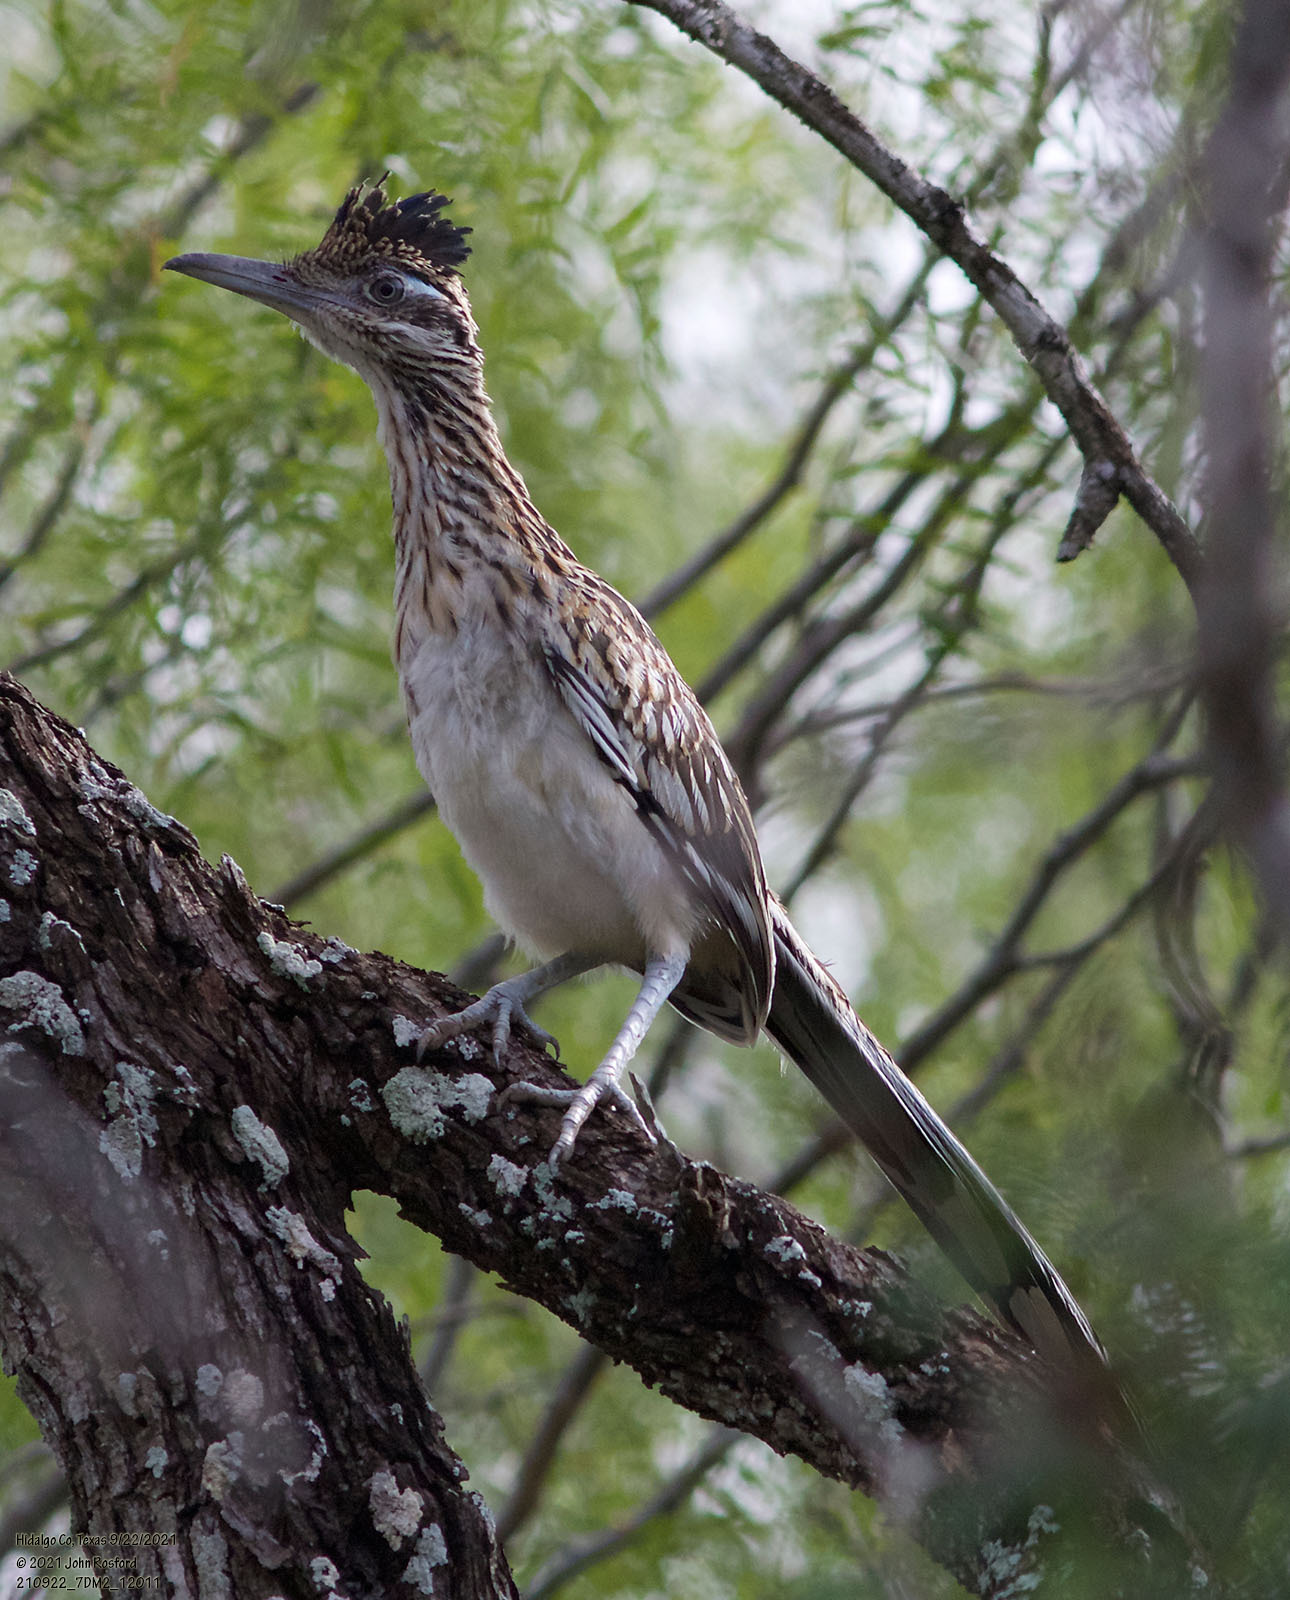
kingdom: Animalia
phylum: Chordata
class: Aves
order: Cuculiformes
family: Cuculidae
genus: Geococcyx
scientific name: Geococcyx californianus
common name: Greater roadrunner
